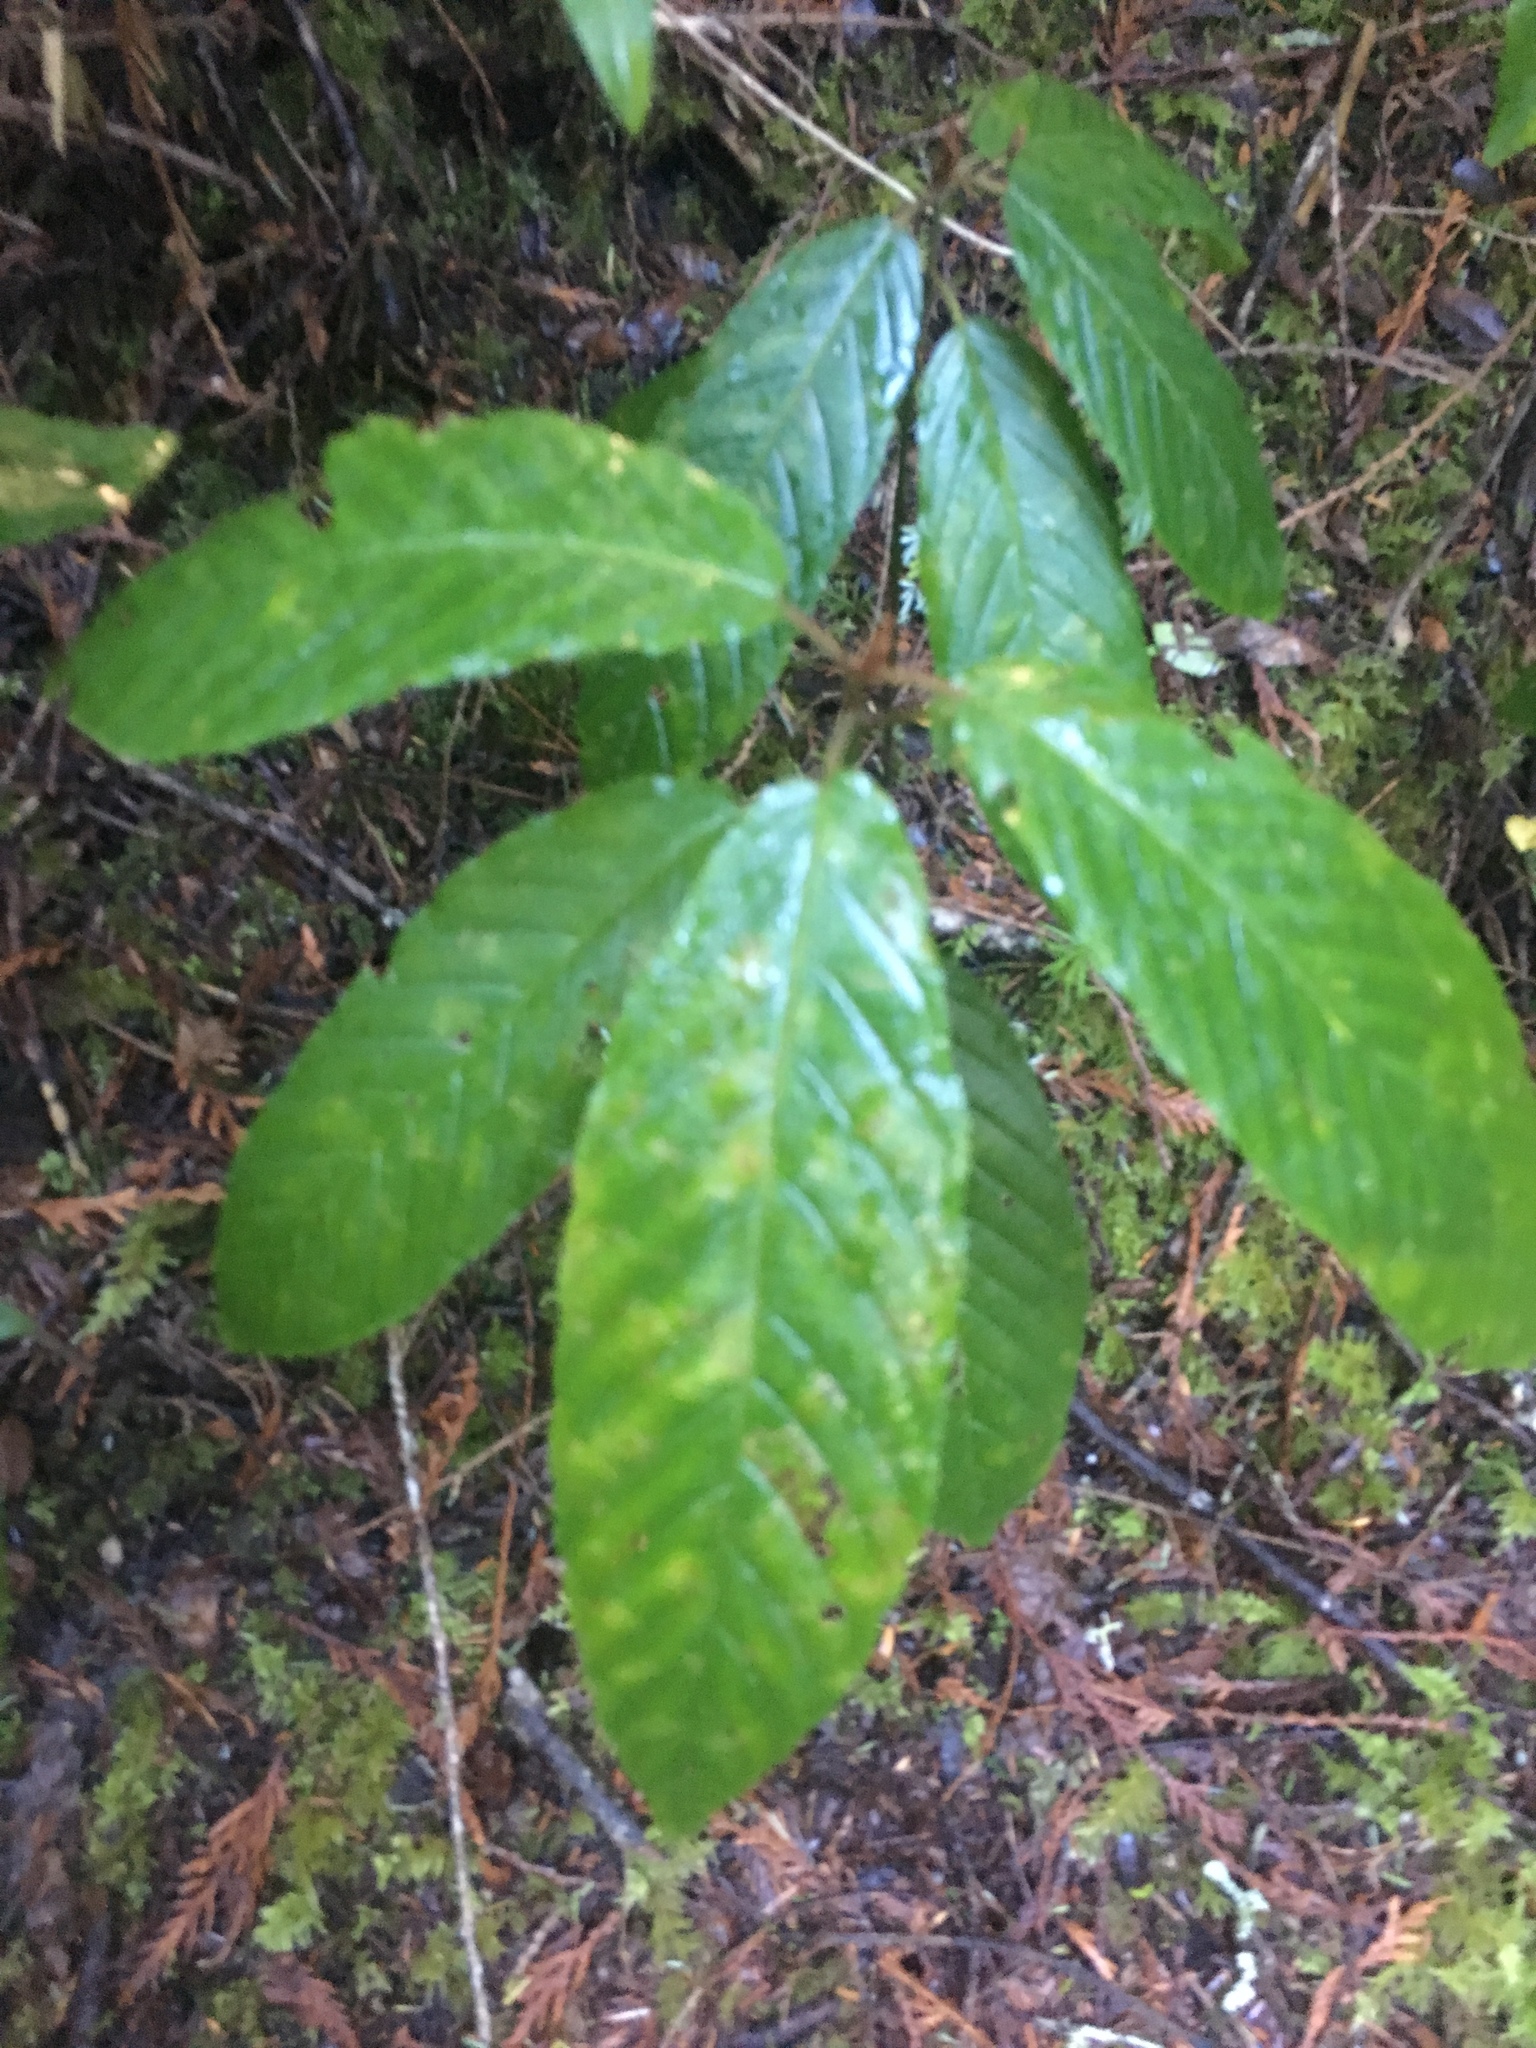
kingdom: Plantae
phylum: Tracheophyta
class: Magnoliopsida
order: Rosales
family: Rhamnaceae
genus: Frangula
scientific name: Frangula purshiana
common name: Cascara buckthorn
